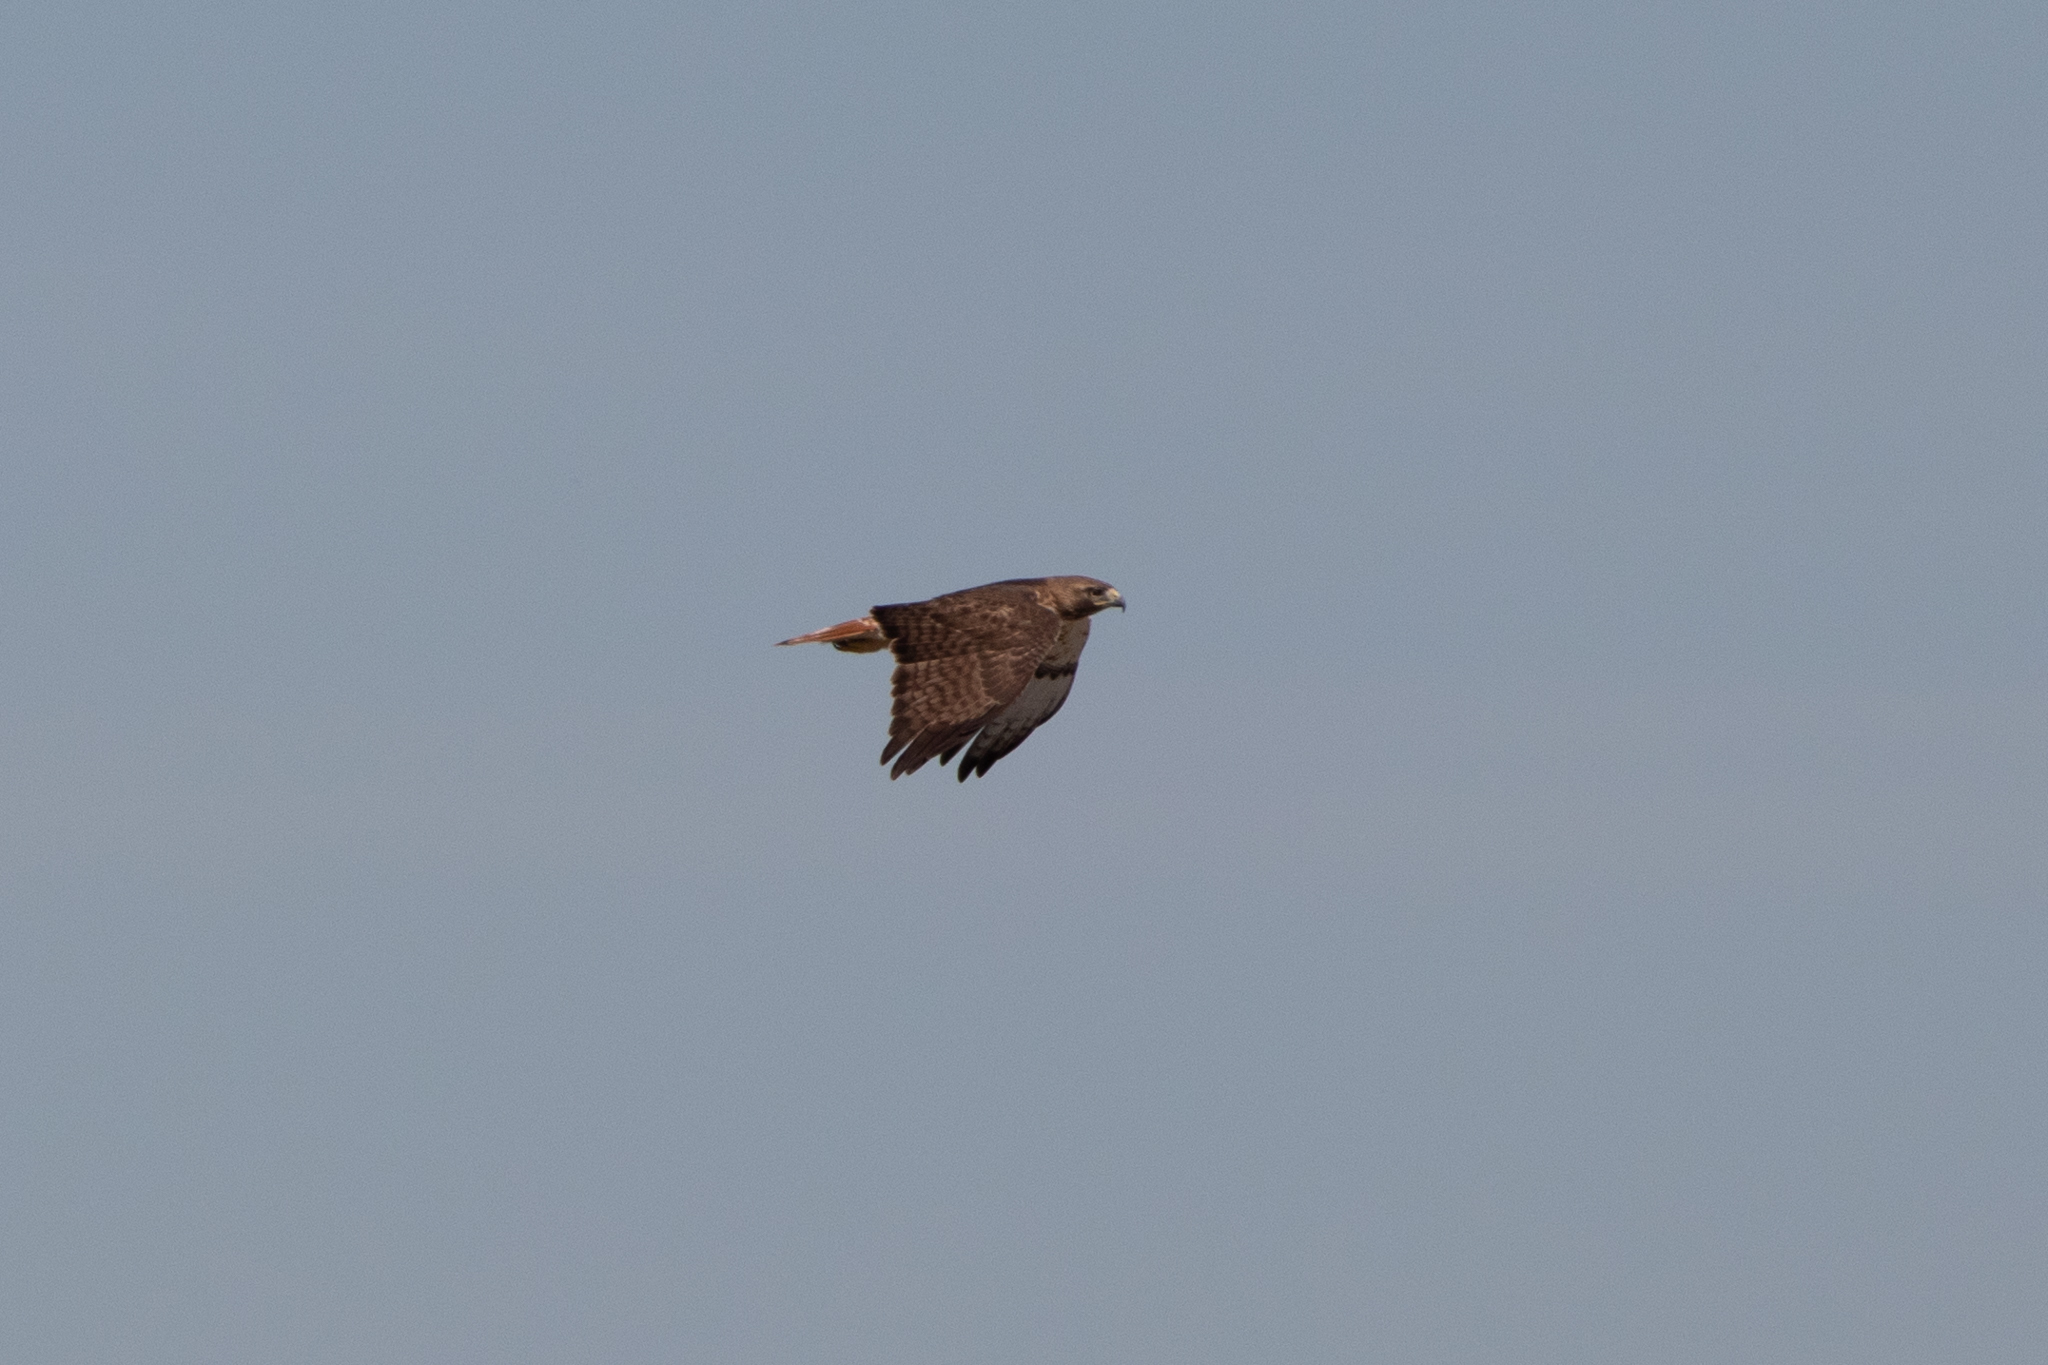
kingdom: Animalia
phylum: Chordata
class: Aves
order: Accipitriformes
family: Accipitridae
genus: Buteo
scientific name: Buteo jamaicensis
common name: Red-tailed hawk
